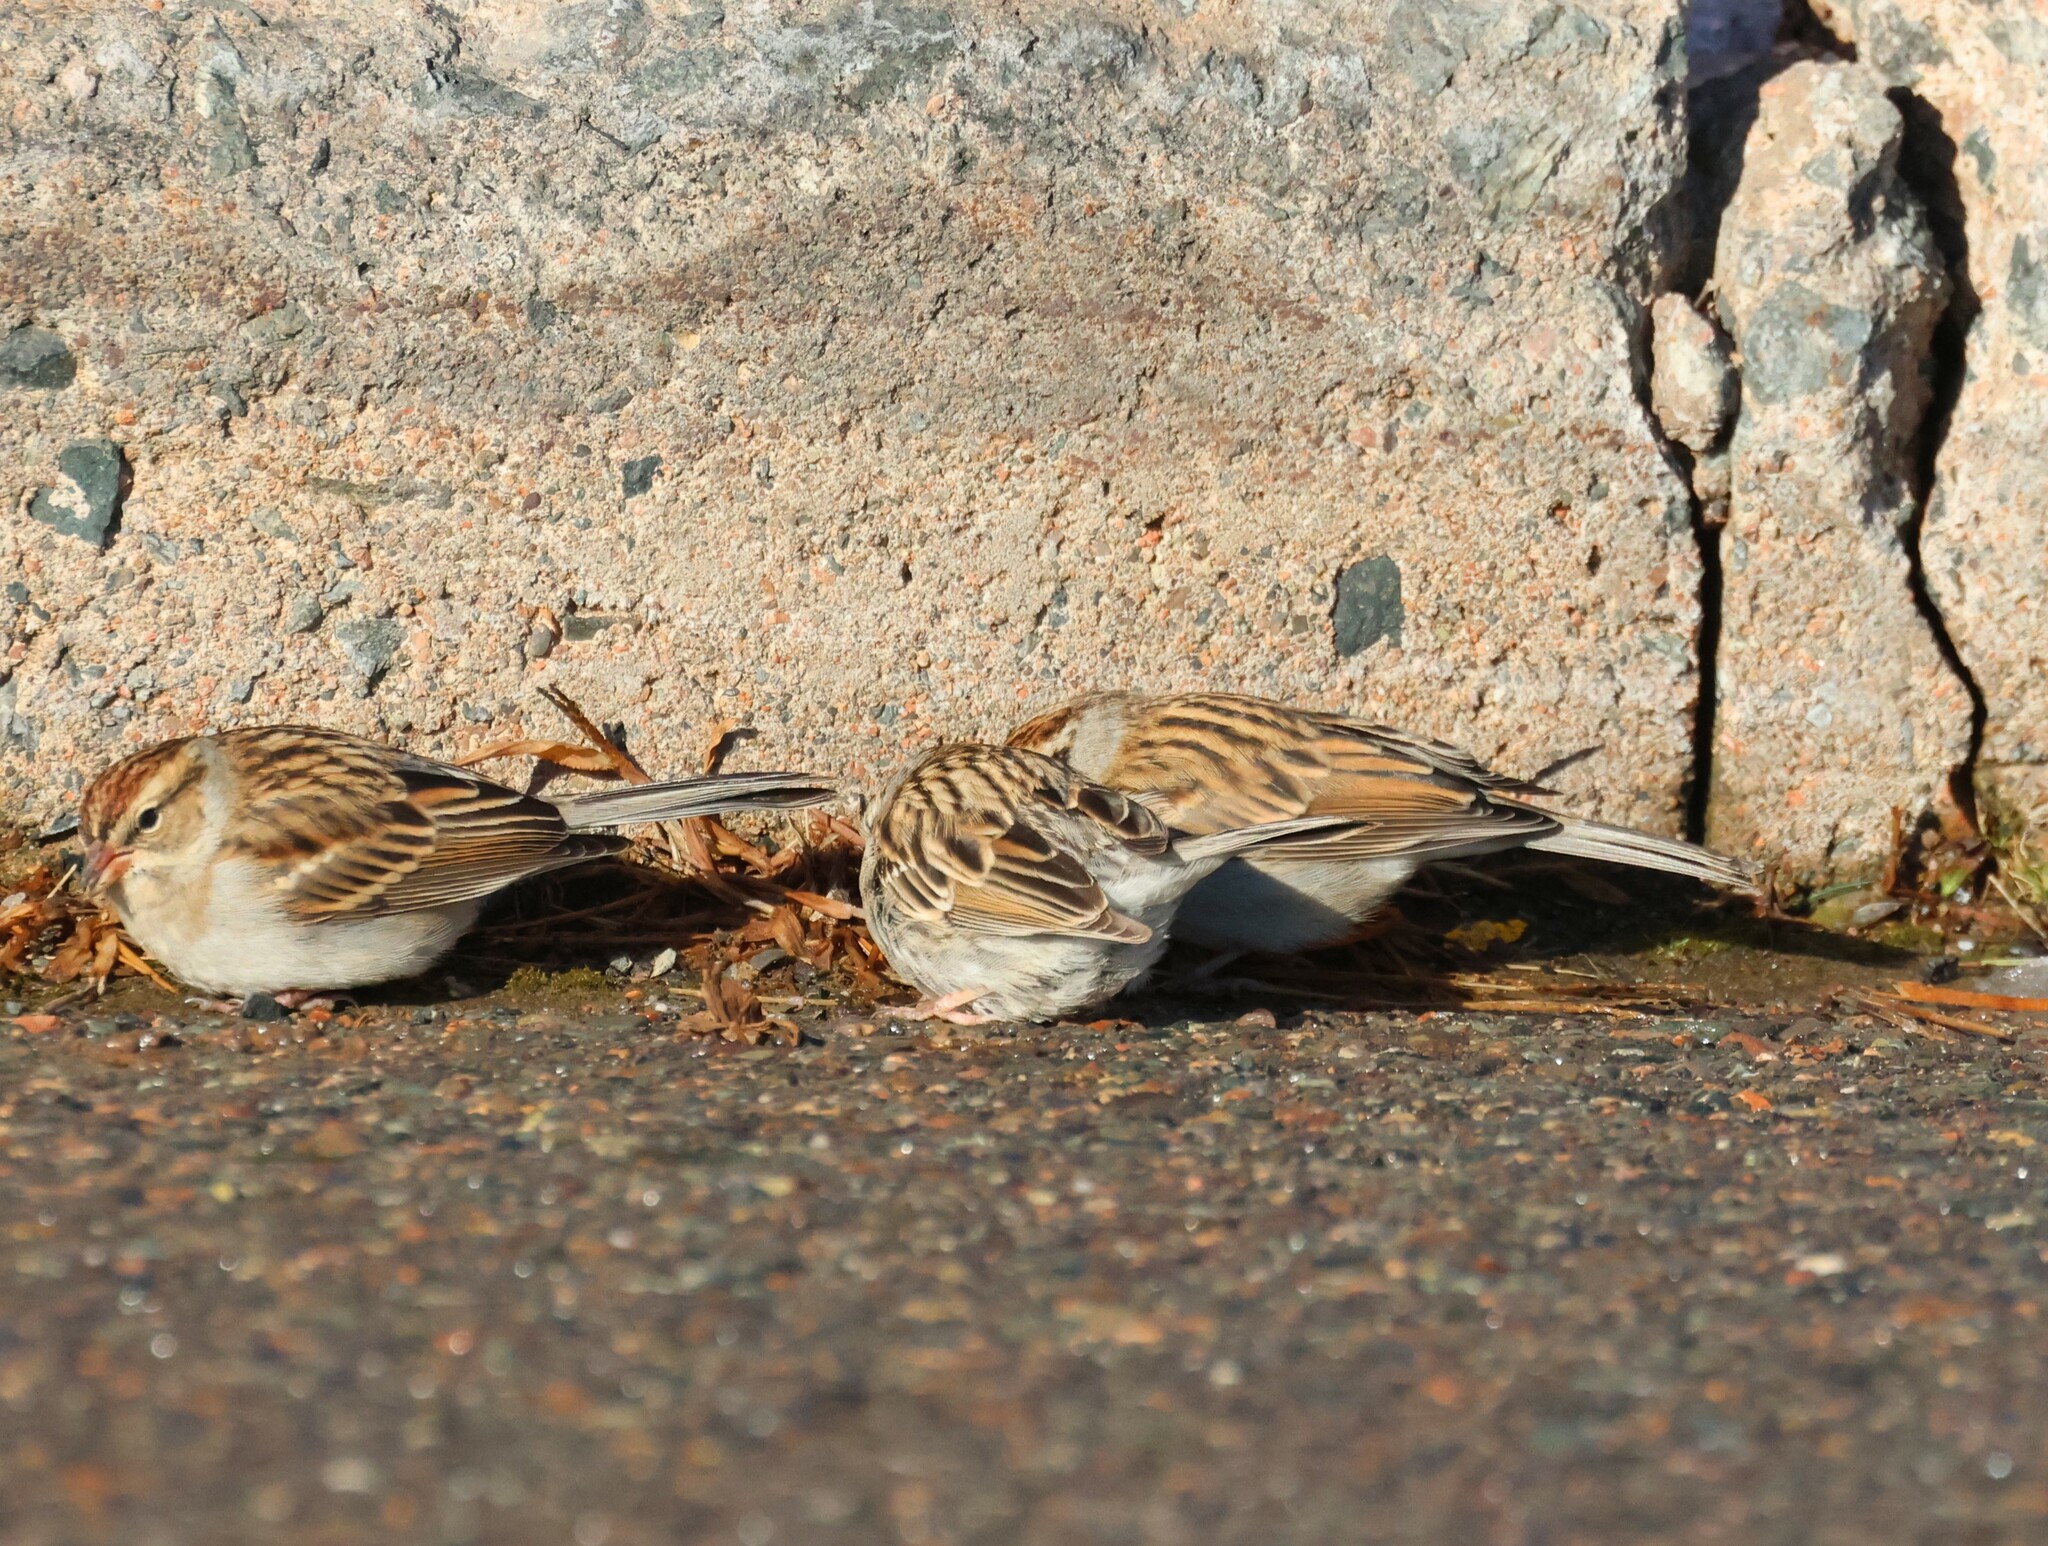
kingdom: Animalia
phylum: Chordata
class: Aves
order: Passeriformes
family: Passerellidae
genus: Spizella
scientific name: Spizella passerina
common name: Chipping sparrow
